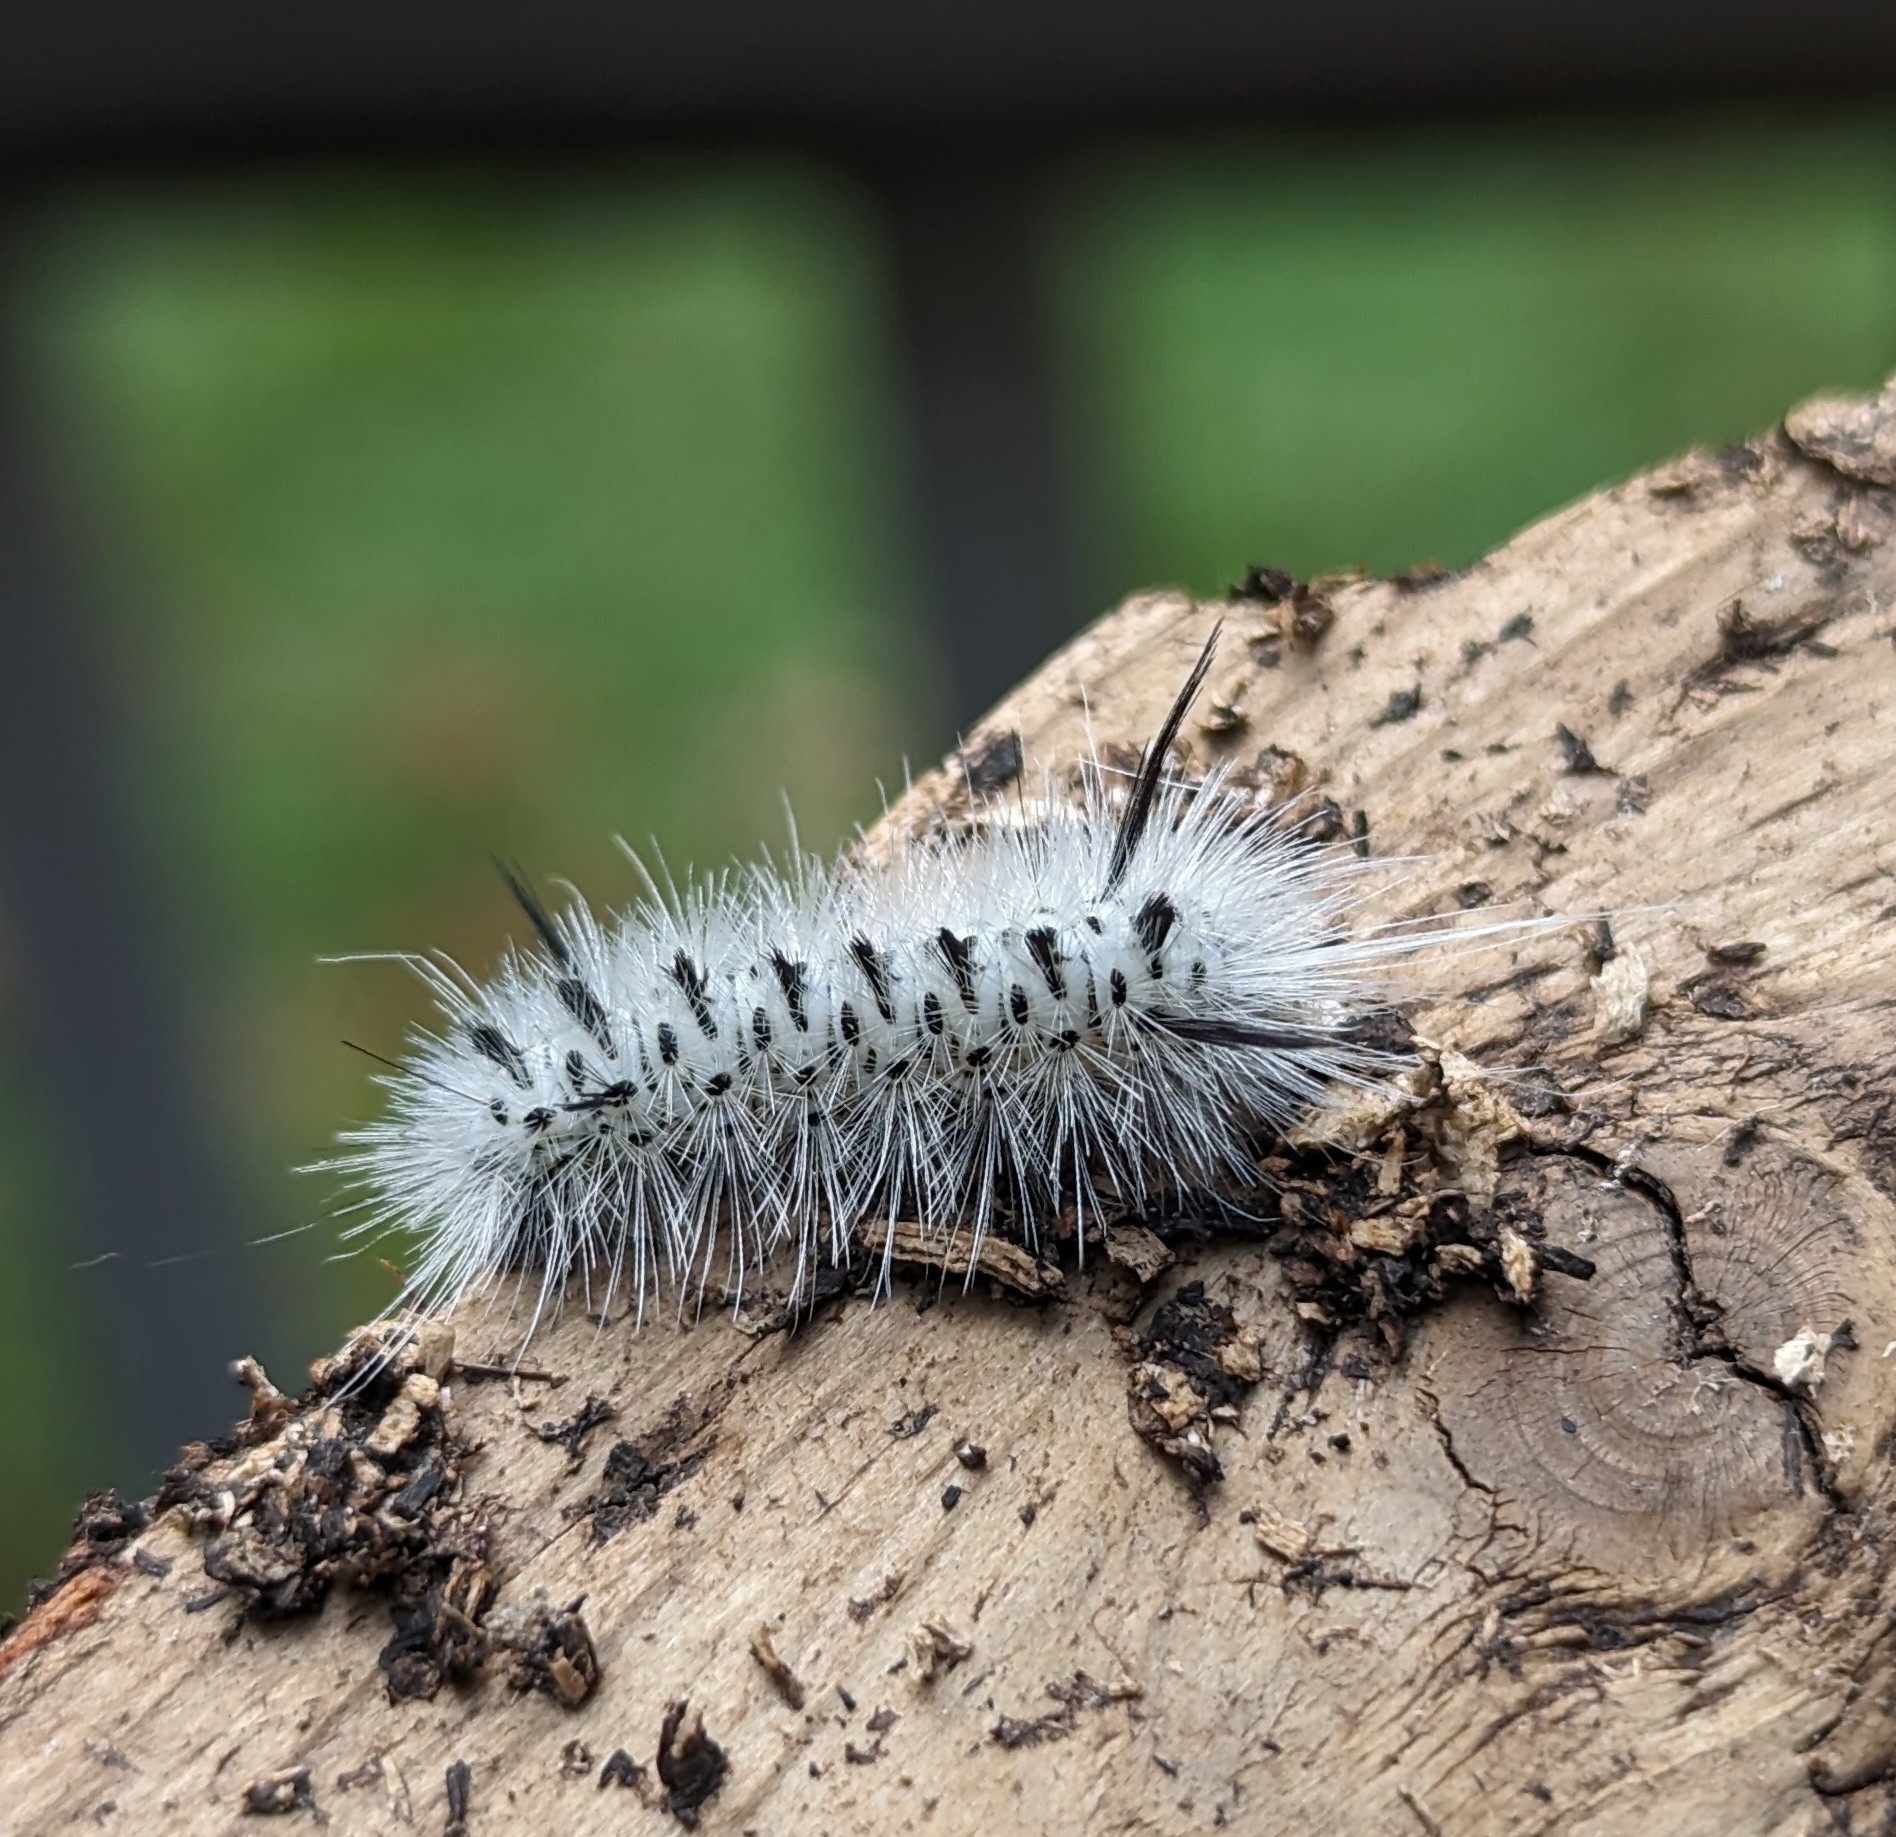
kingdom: Animalia
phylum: Arthropoda
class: Insecta
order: Lepidoptera
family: Erebidae
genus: Lophocampa
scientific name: Lophocampa caryae
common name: Hickory tussock moth
